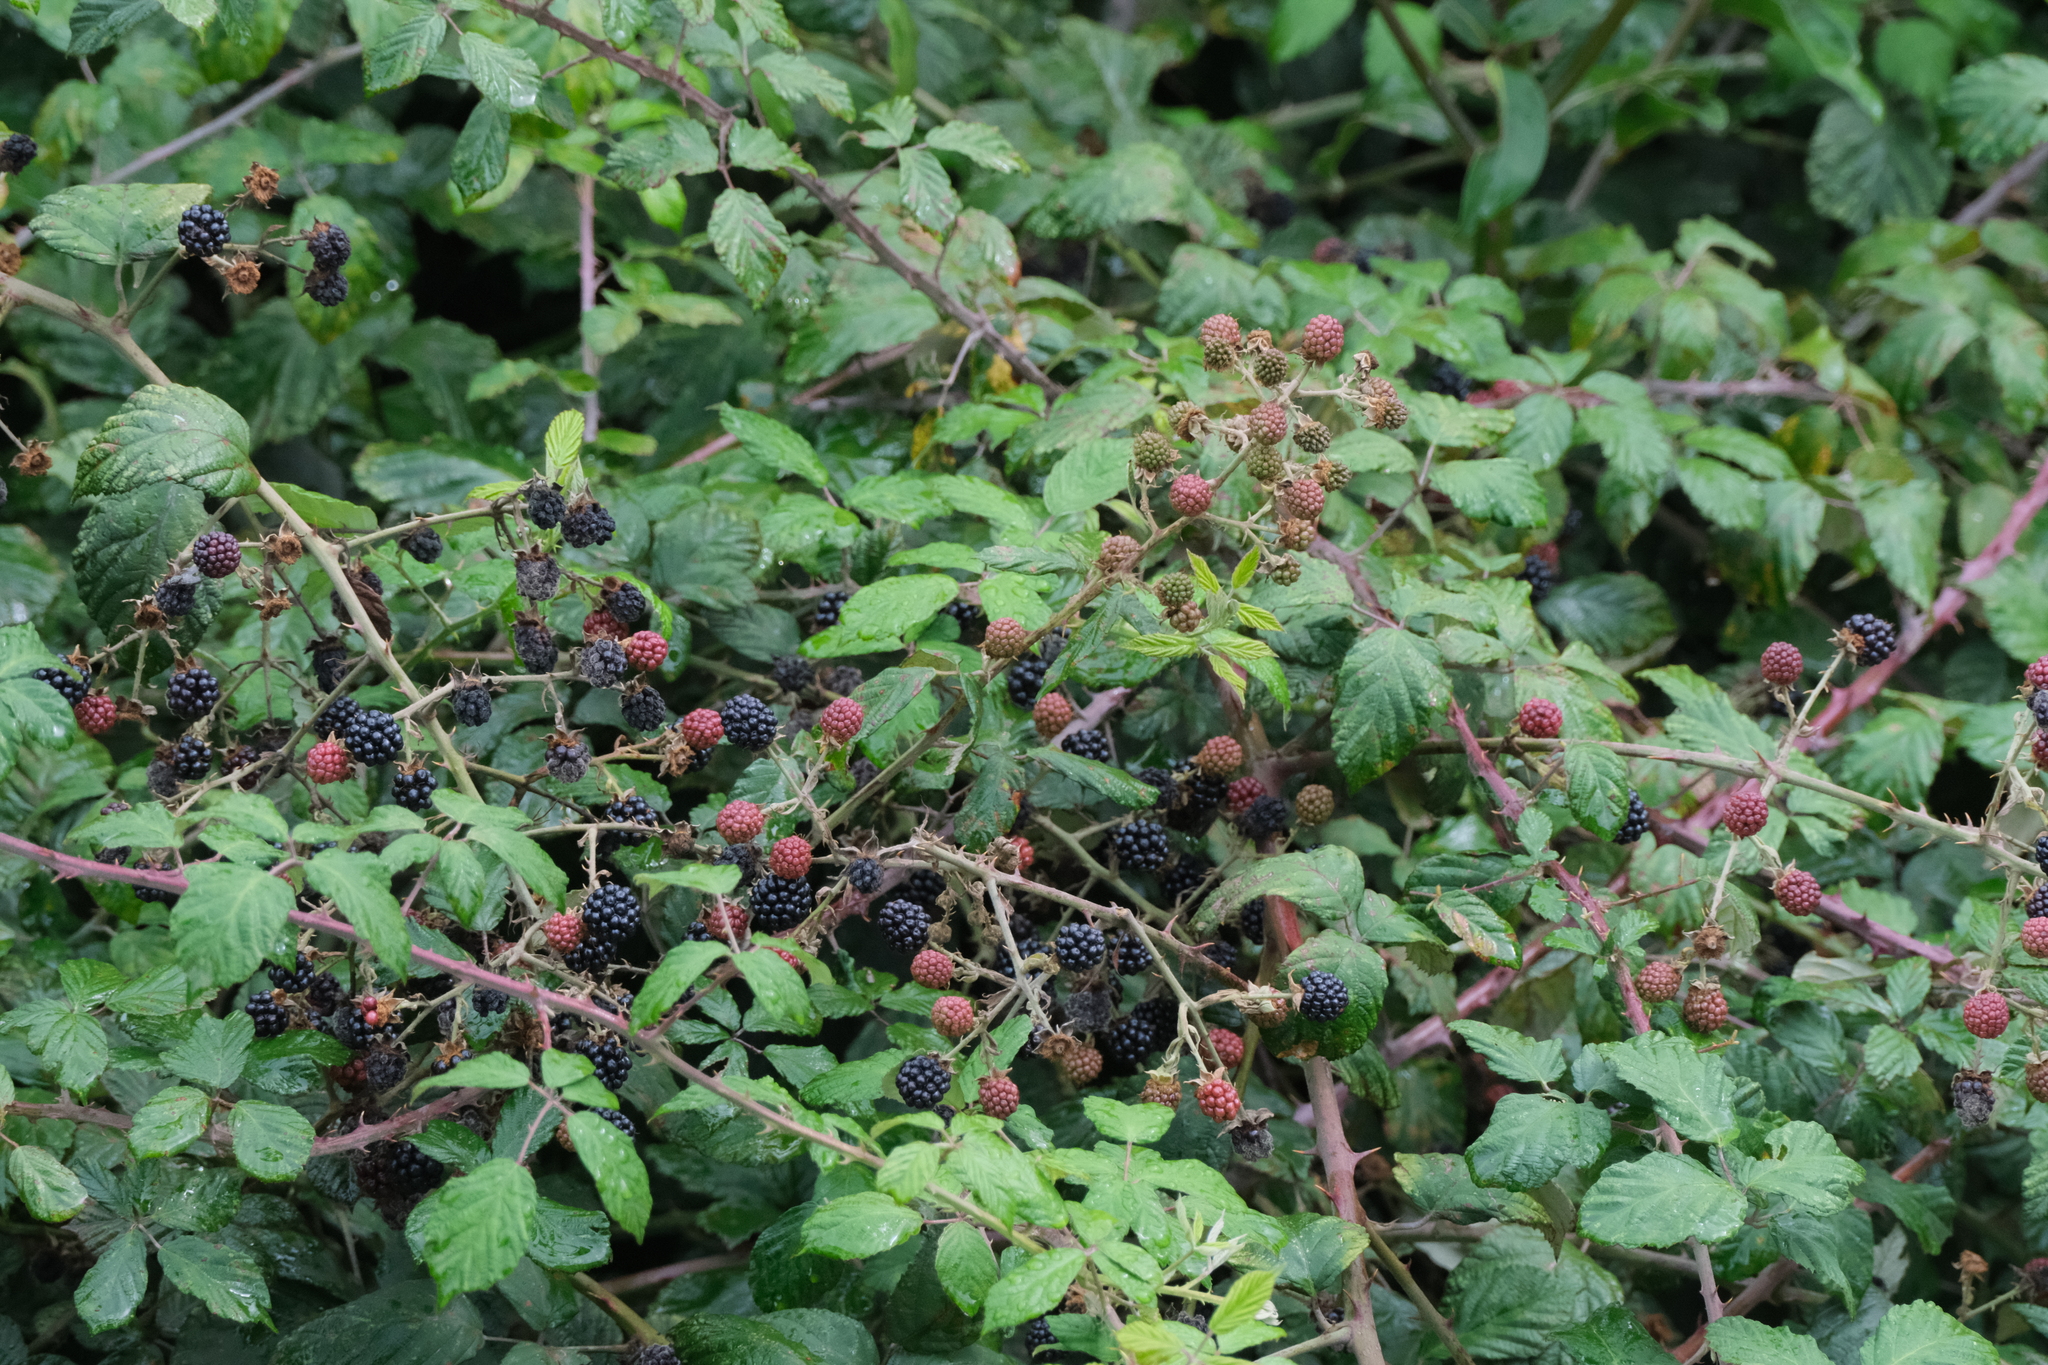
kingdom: Plantae
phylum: Tracheophyta
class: Magnoliopsida
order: Rosales
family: Rosaceae
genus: Rubus
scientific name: Rubus ulmifolius
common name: Elmleaf blackberry
